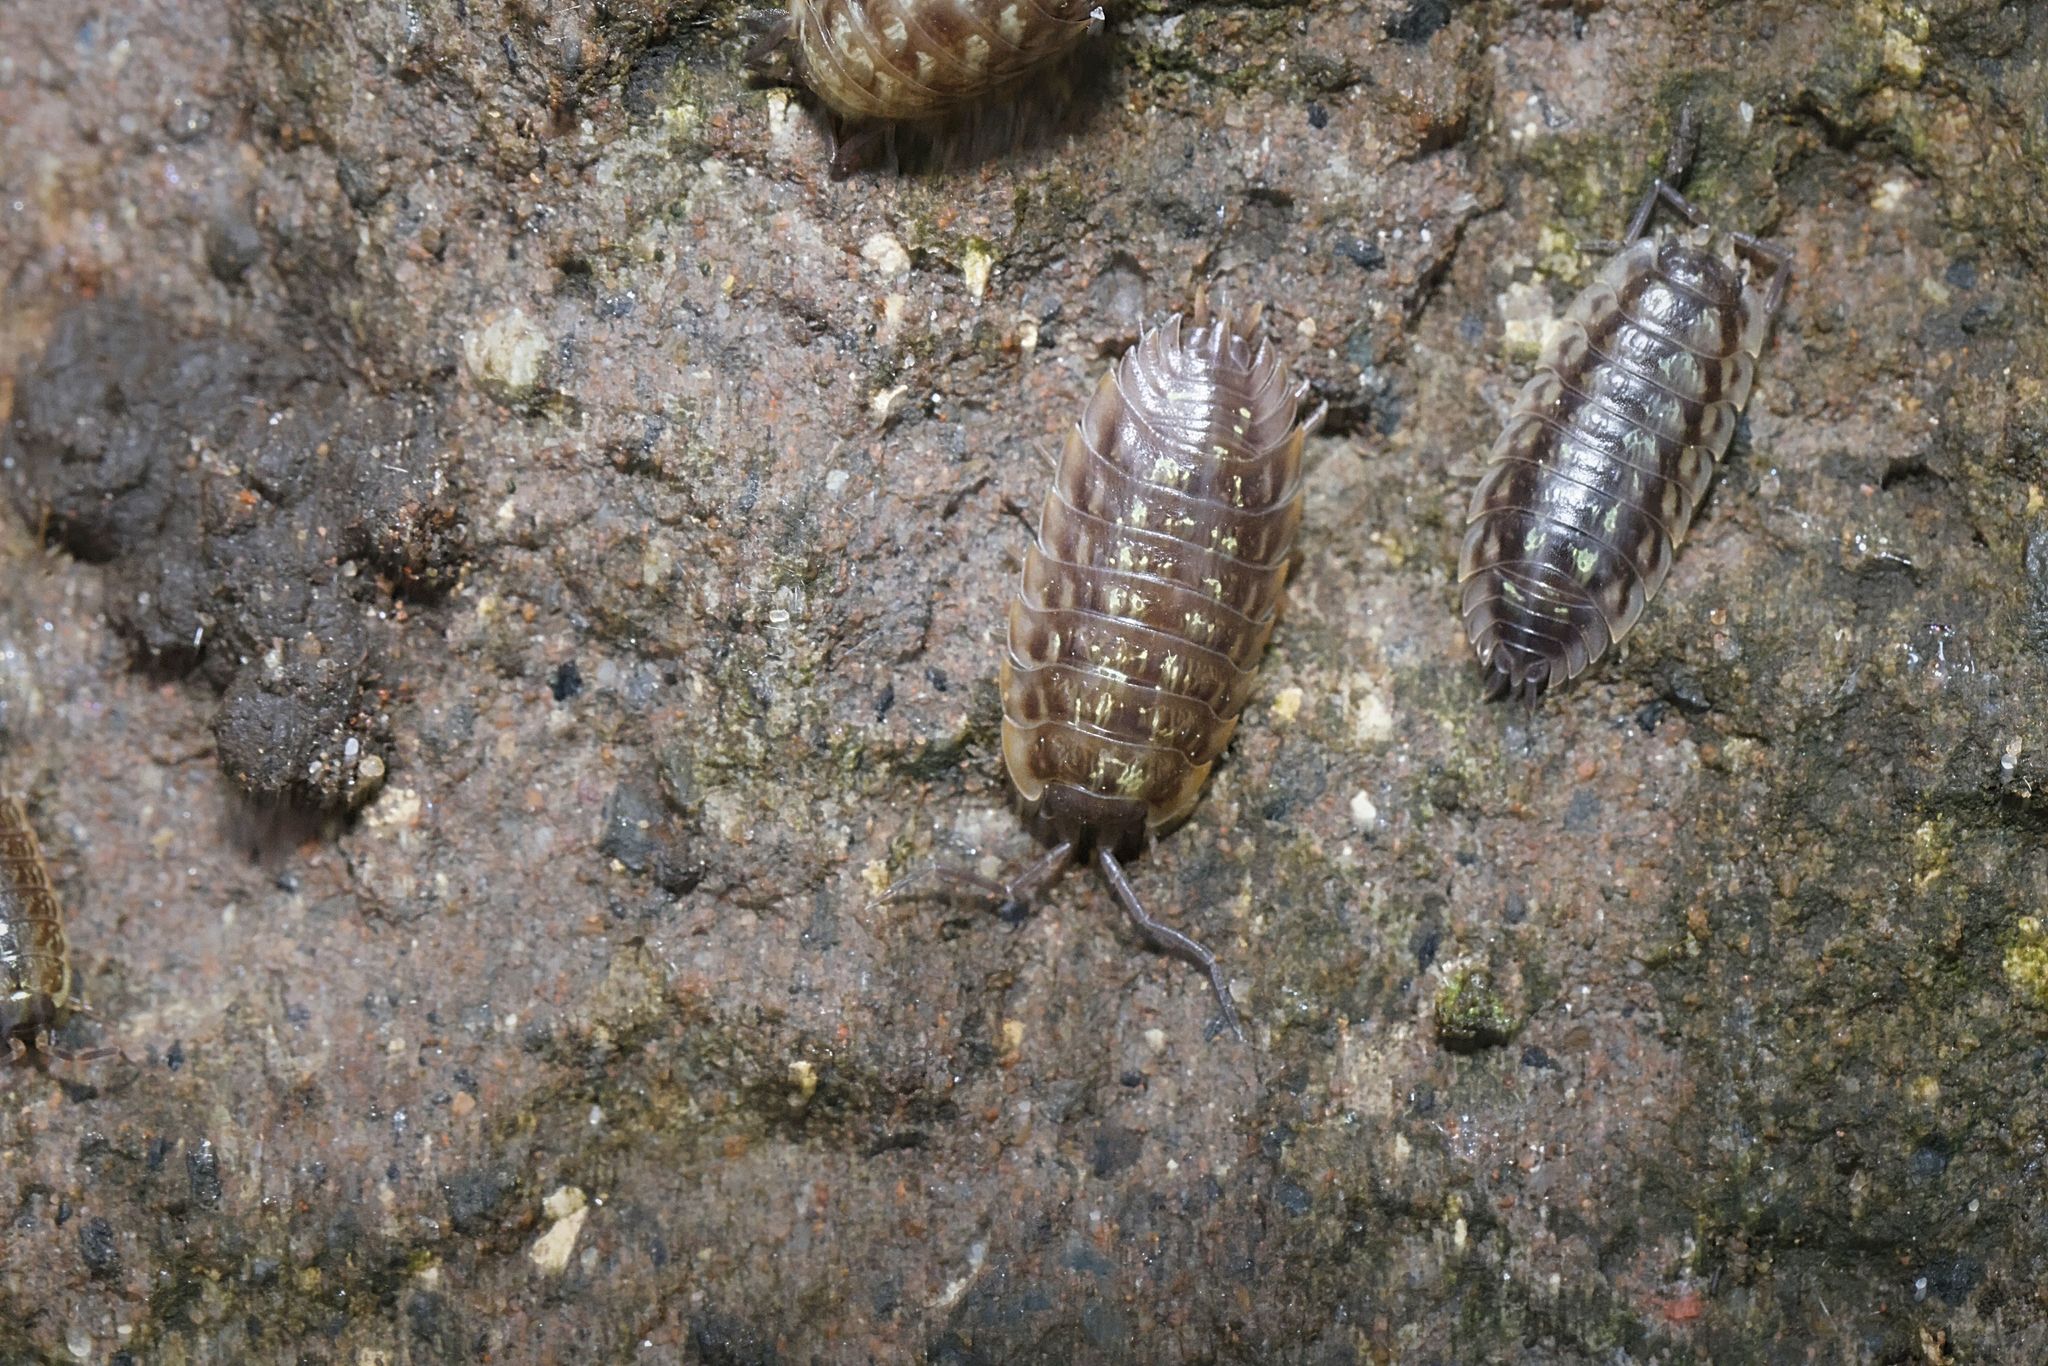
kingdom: Animalia
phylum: Arthropoda
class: Malacostraca
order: Isopoda
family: Oniscidae
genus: Oniscus
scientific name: Oniscus asellus
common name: Common shiny woodlouse
